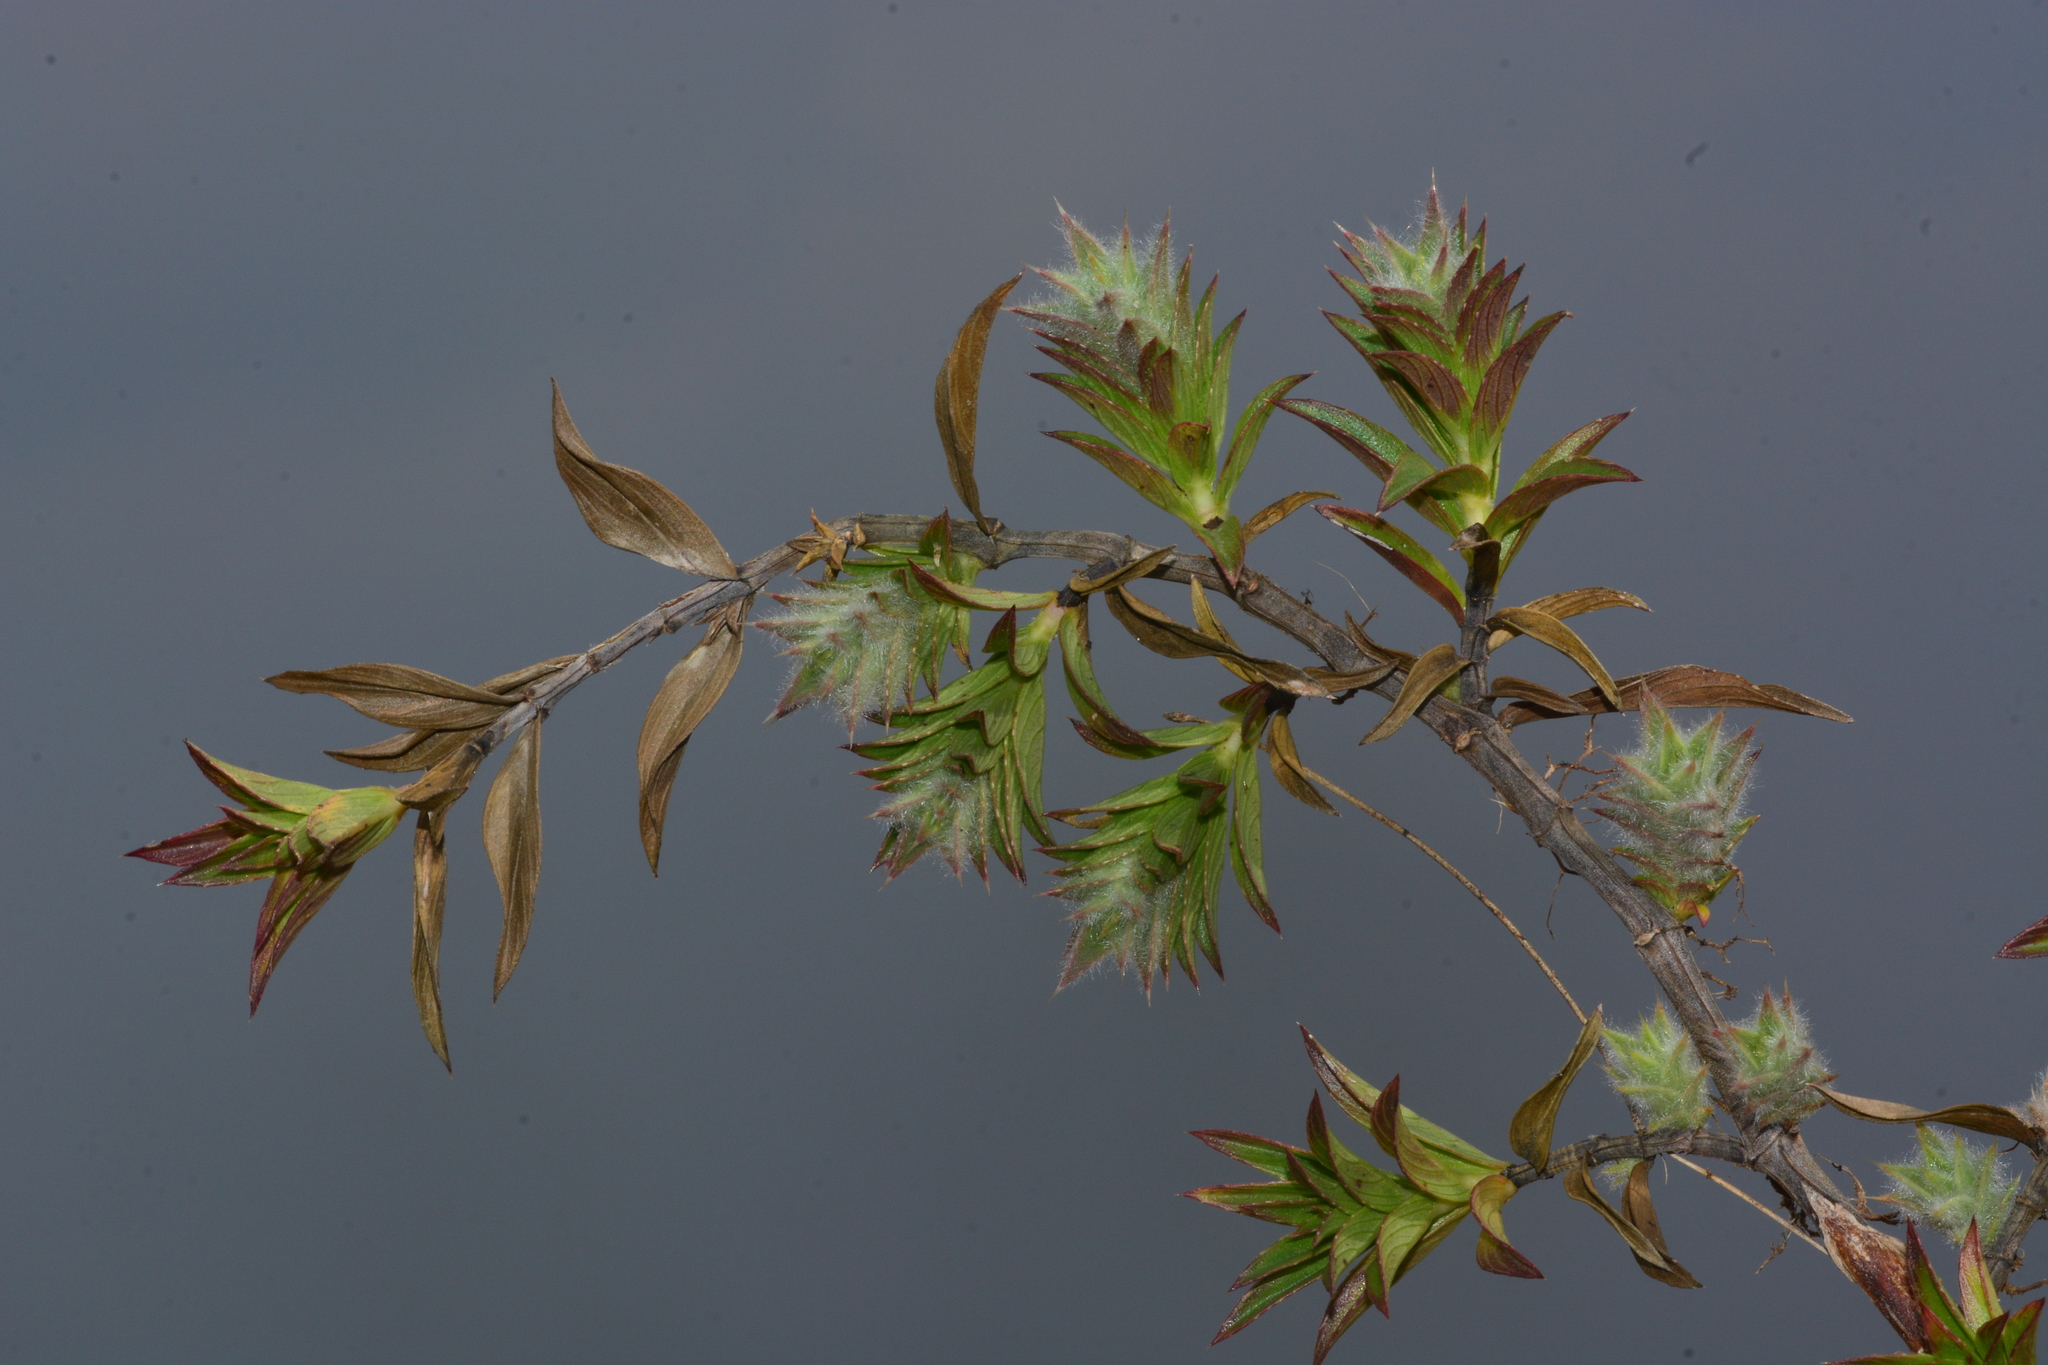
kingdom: Plantae
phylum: Tracheophyta
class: Magnoliopsida
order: Lamiales
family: Acanthaceae
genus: Lepidagathis
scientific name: Lepidagathis clavata
